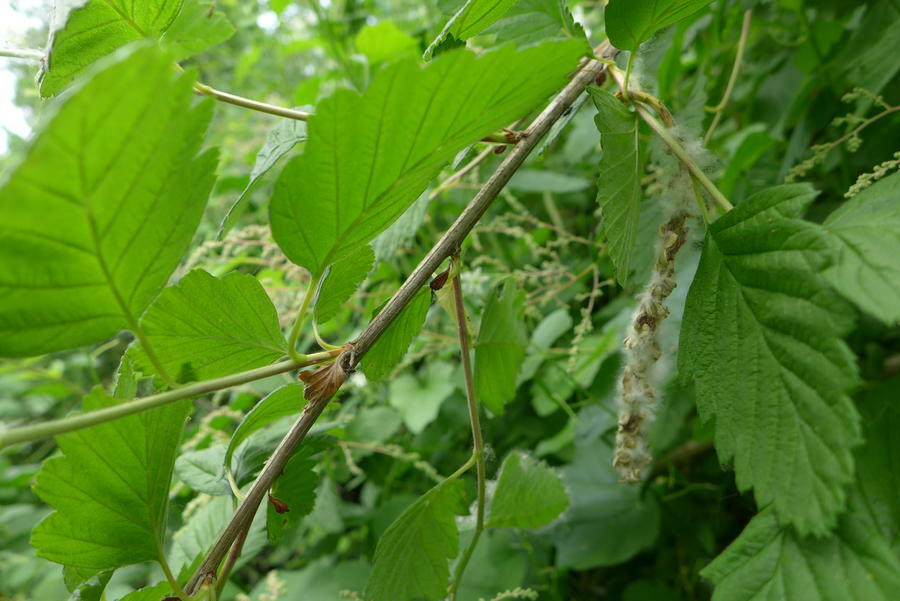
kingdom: Plantae
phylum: Tracheophyta
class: Magnoliopsida
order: Rosales
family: Rosaceae
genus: Holodiscus
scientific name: Holodiscus discolor
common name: Oceanspray
